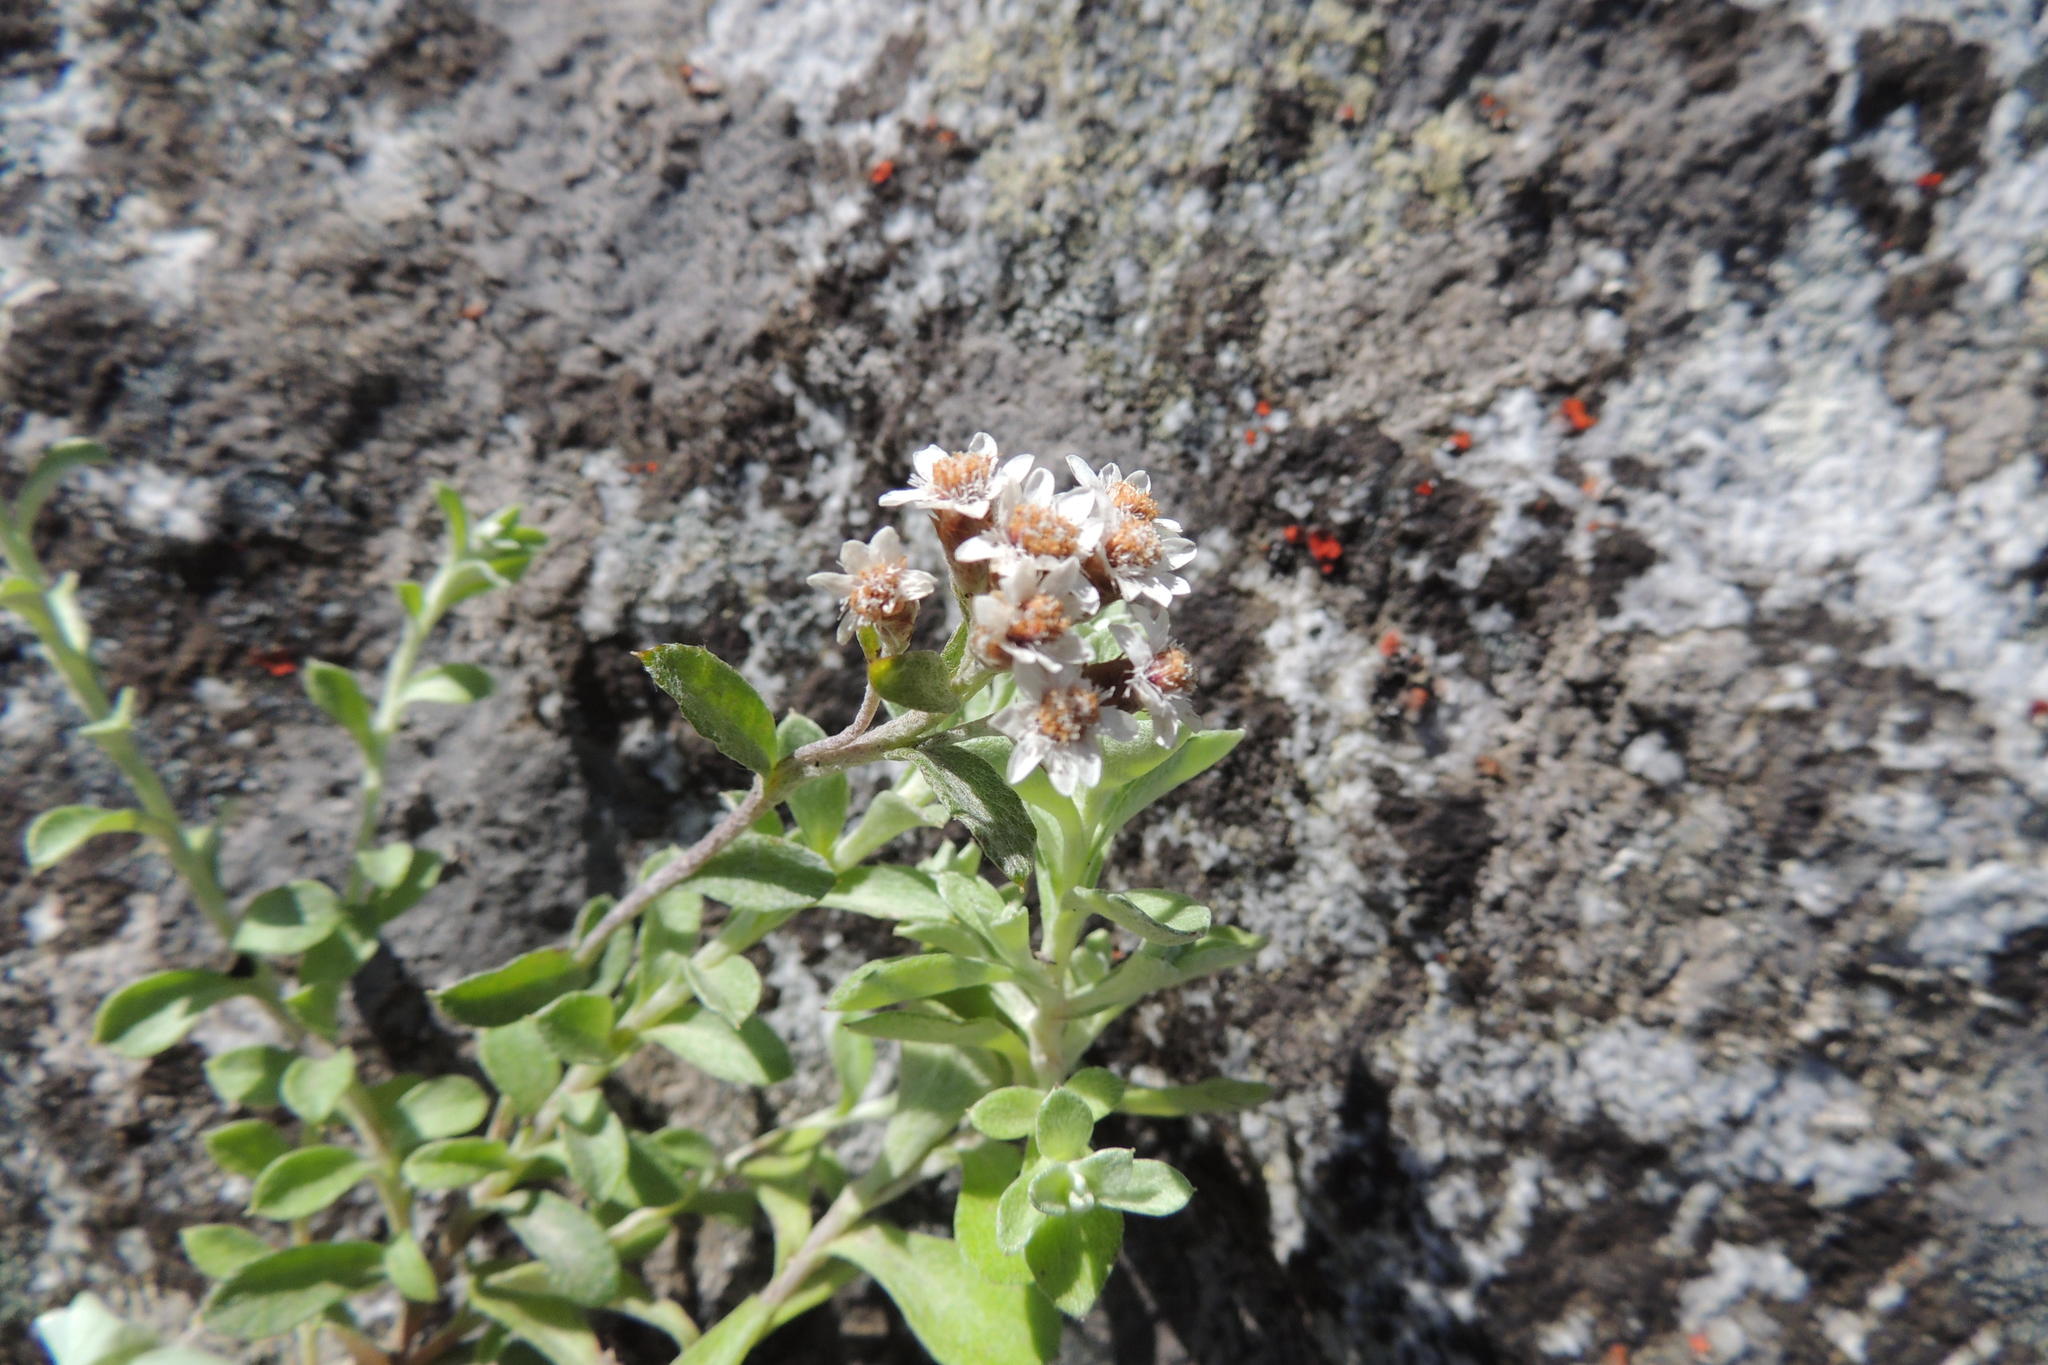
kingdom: Plantae
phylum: Tracheophyta
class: Magnoliopsida
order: Asterales
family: Asteraceae
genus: Langebergia
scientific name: Langebergia canescens
